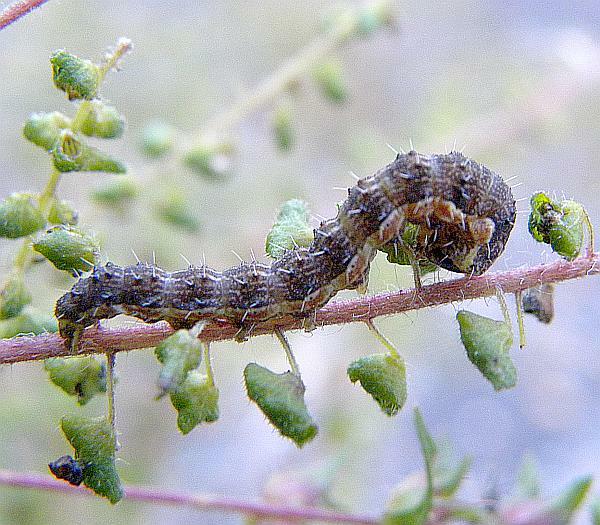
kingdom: Animalia
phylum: Arthropoda
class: Insecta
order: Lepidoptera
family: Noctuidae
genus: Schinia
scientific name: Schinia rivulosa
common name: Scarce meal-moth
